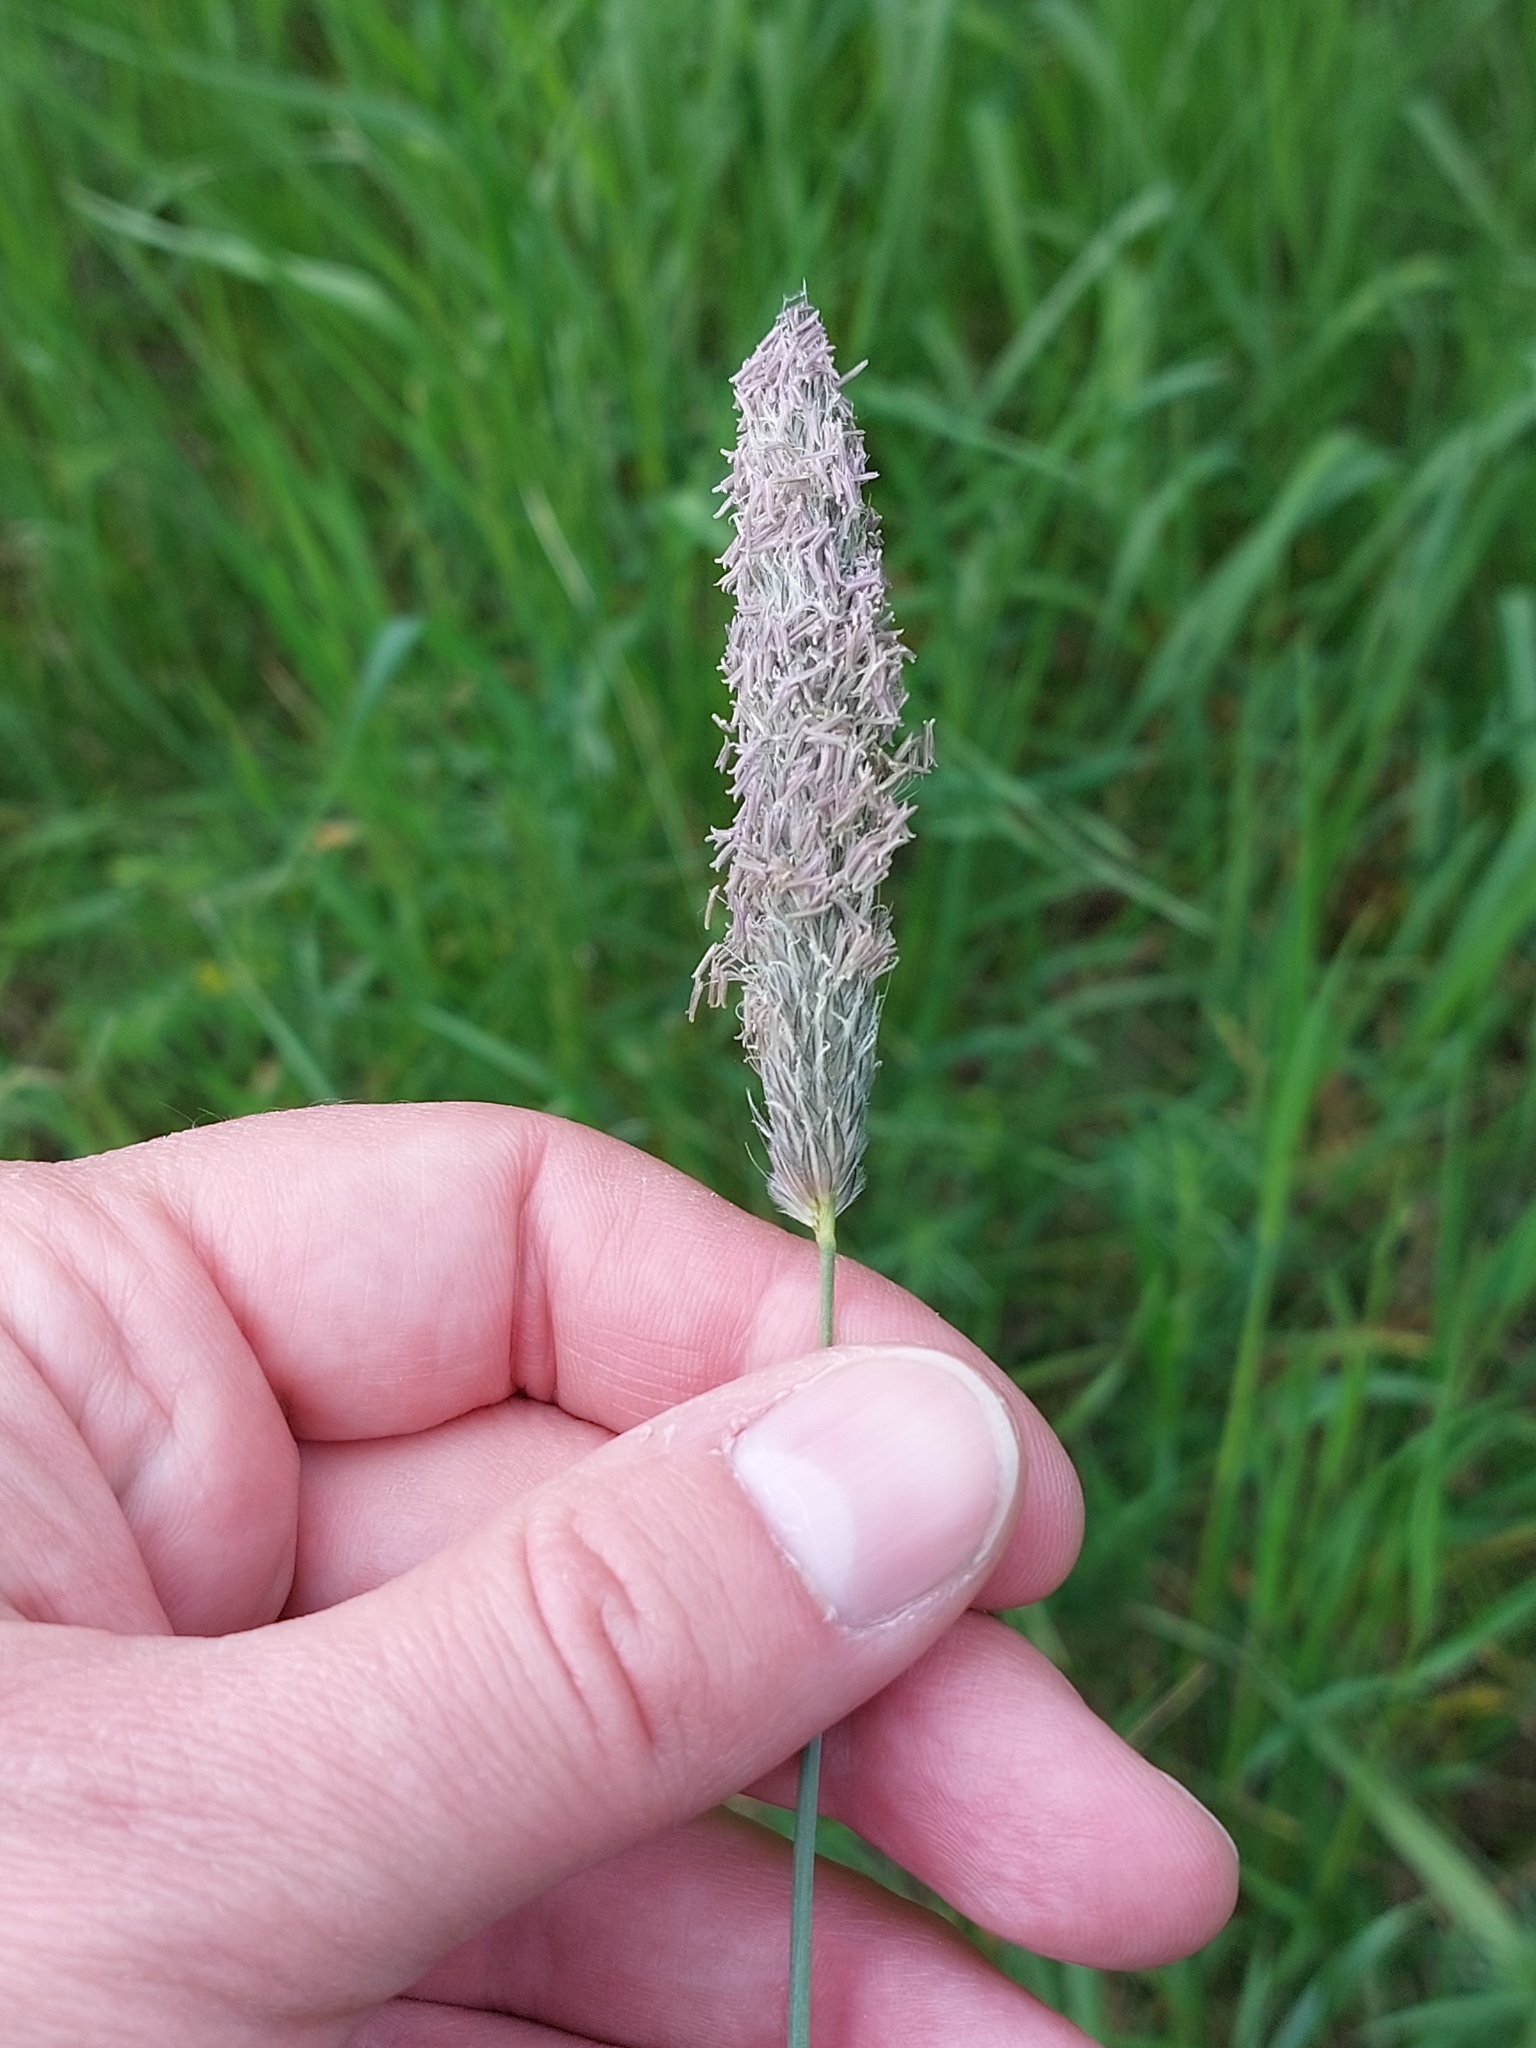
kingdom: Plantae
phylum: Tracheophyta
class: Liliopsida
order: Poales
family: Poaceae
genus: Alopecurus
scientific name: Alopecurus pratensis
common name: Meadow foxtail
